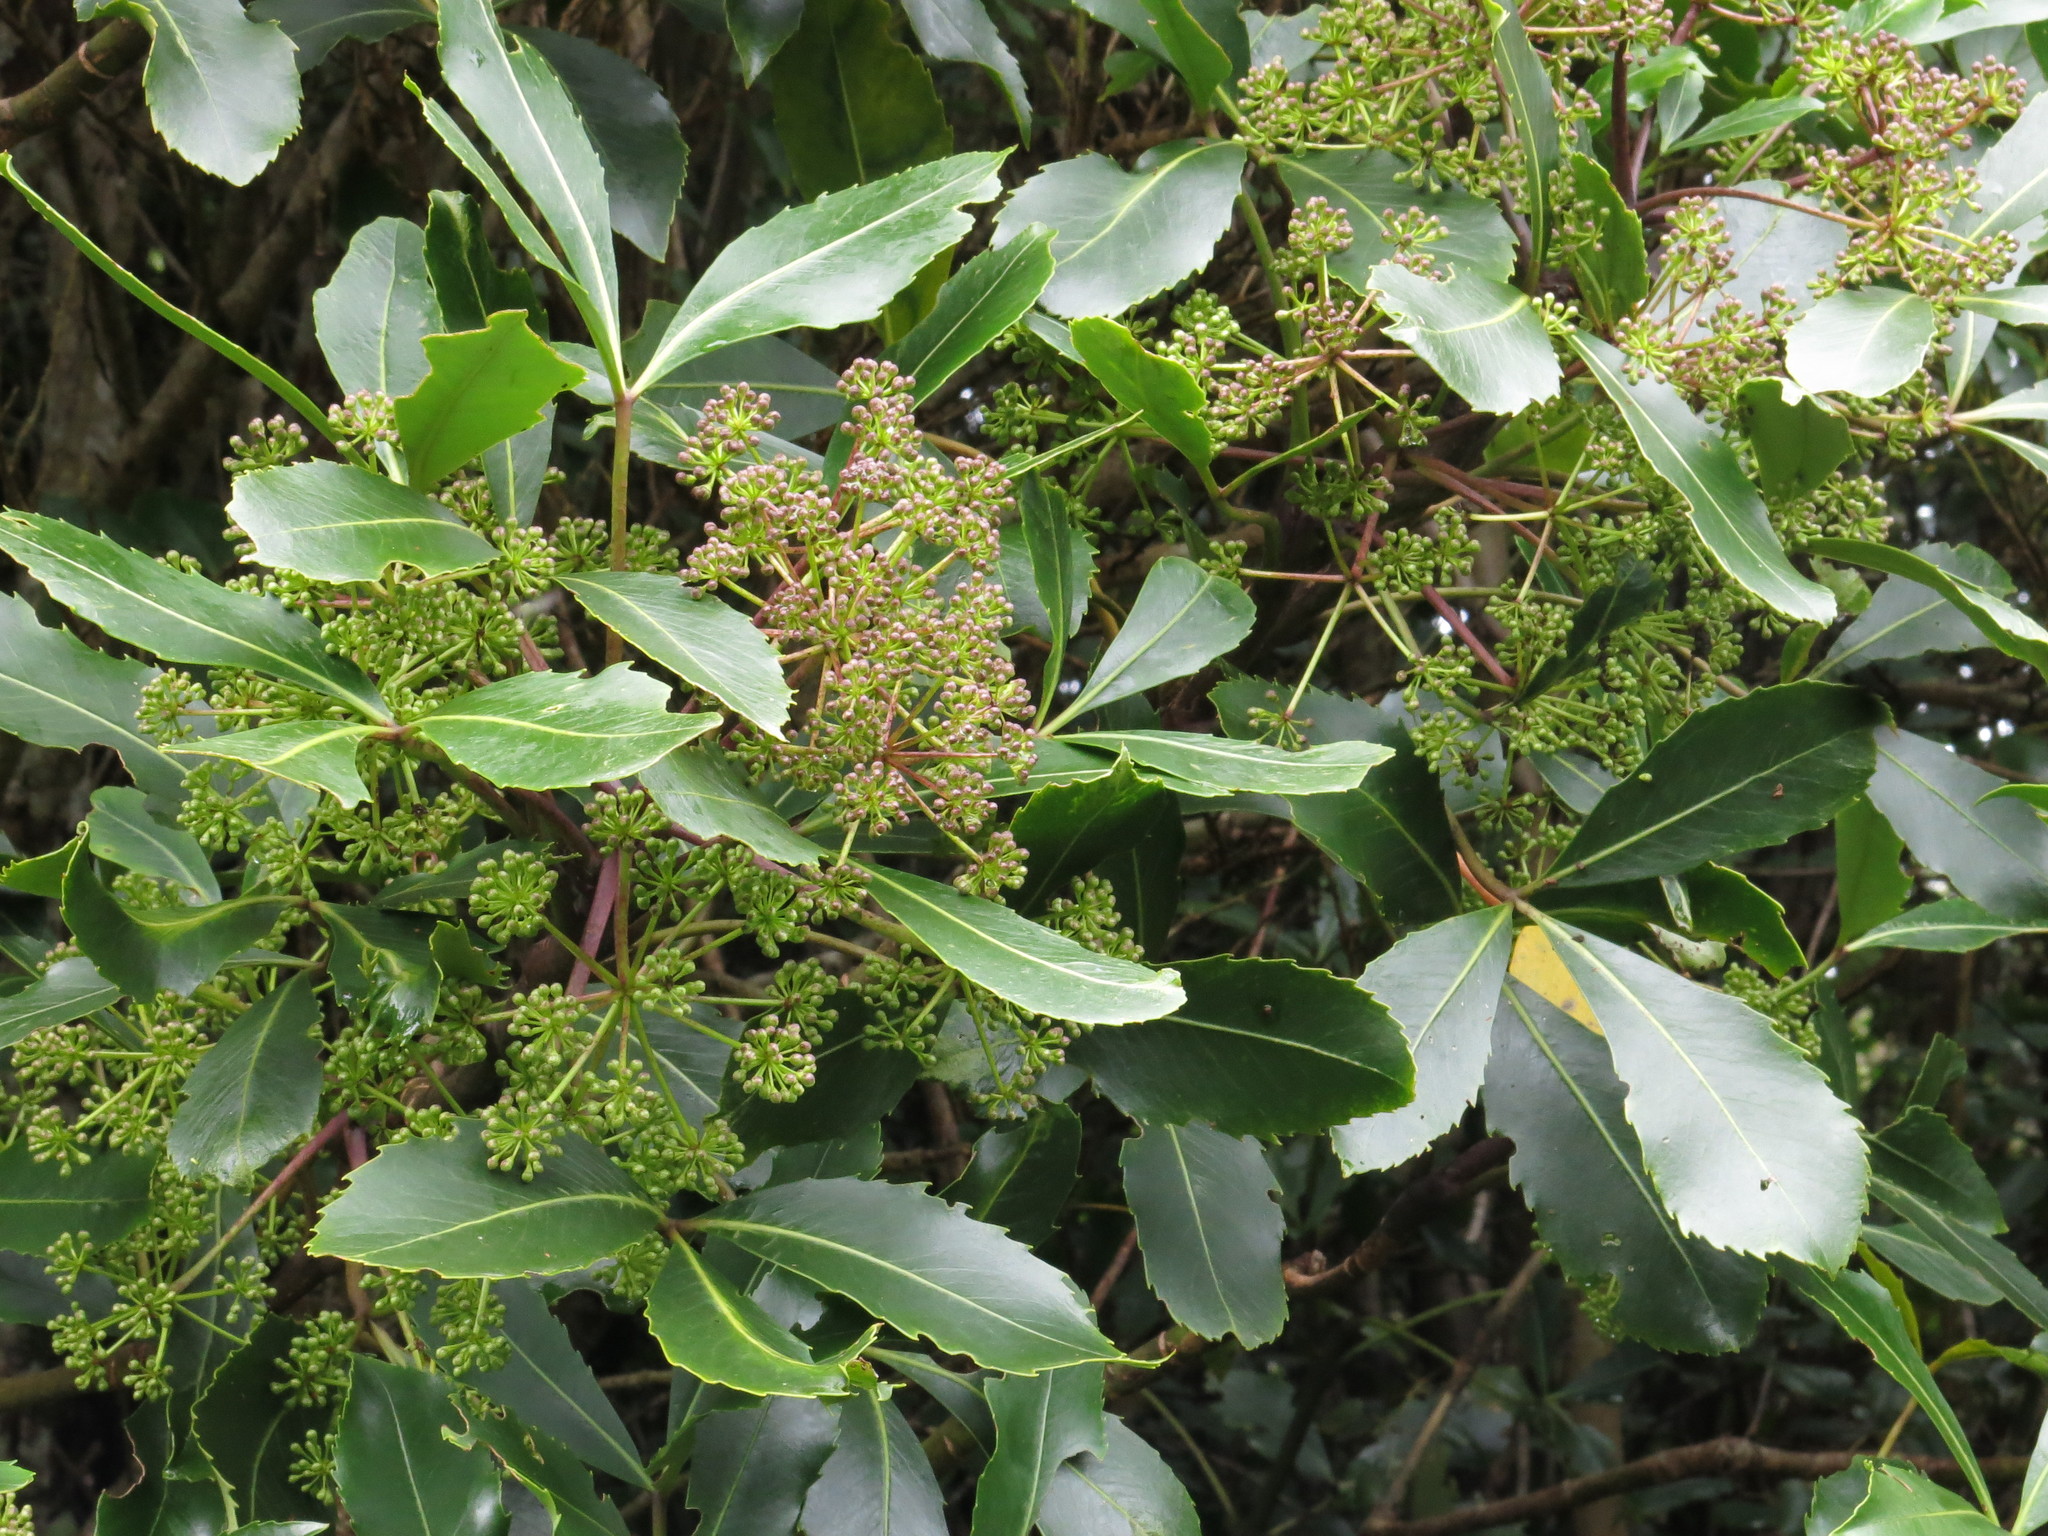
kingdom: Plantae
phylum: Tracheophyta
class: Magnoliopsida
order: Apiales
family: Araliaceae
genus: Neopanax
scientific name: Neopanax colensoi
